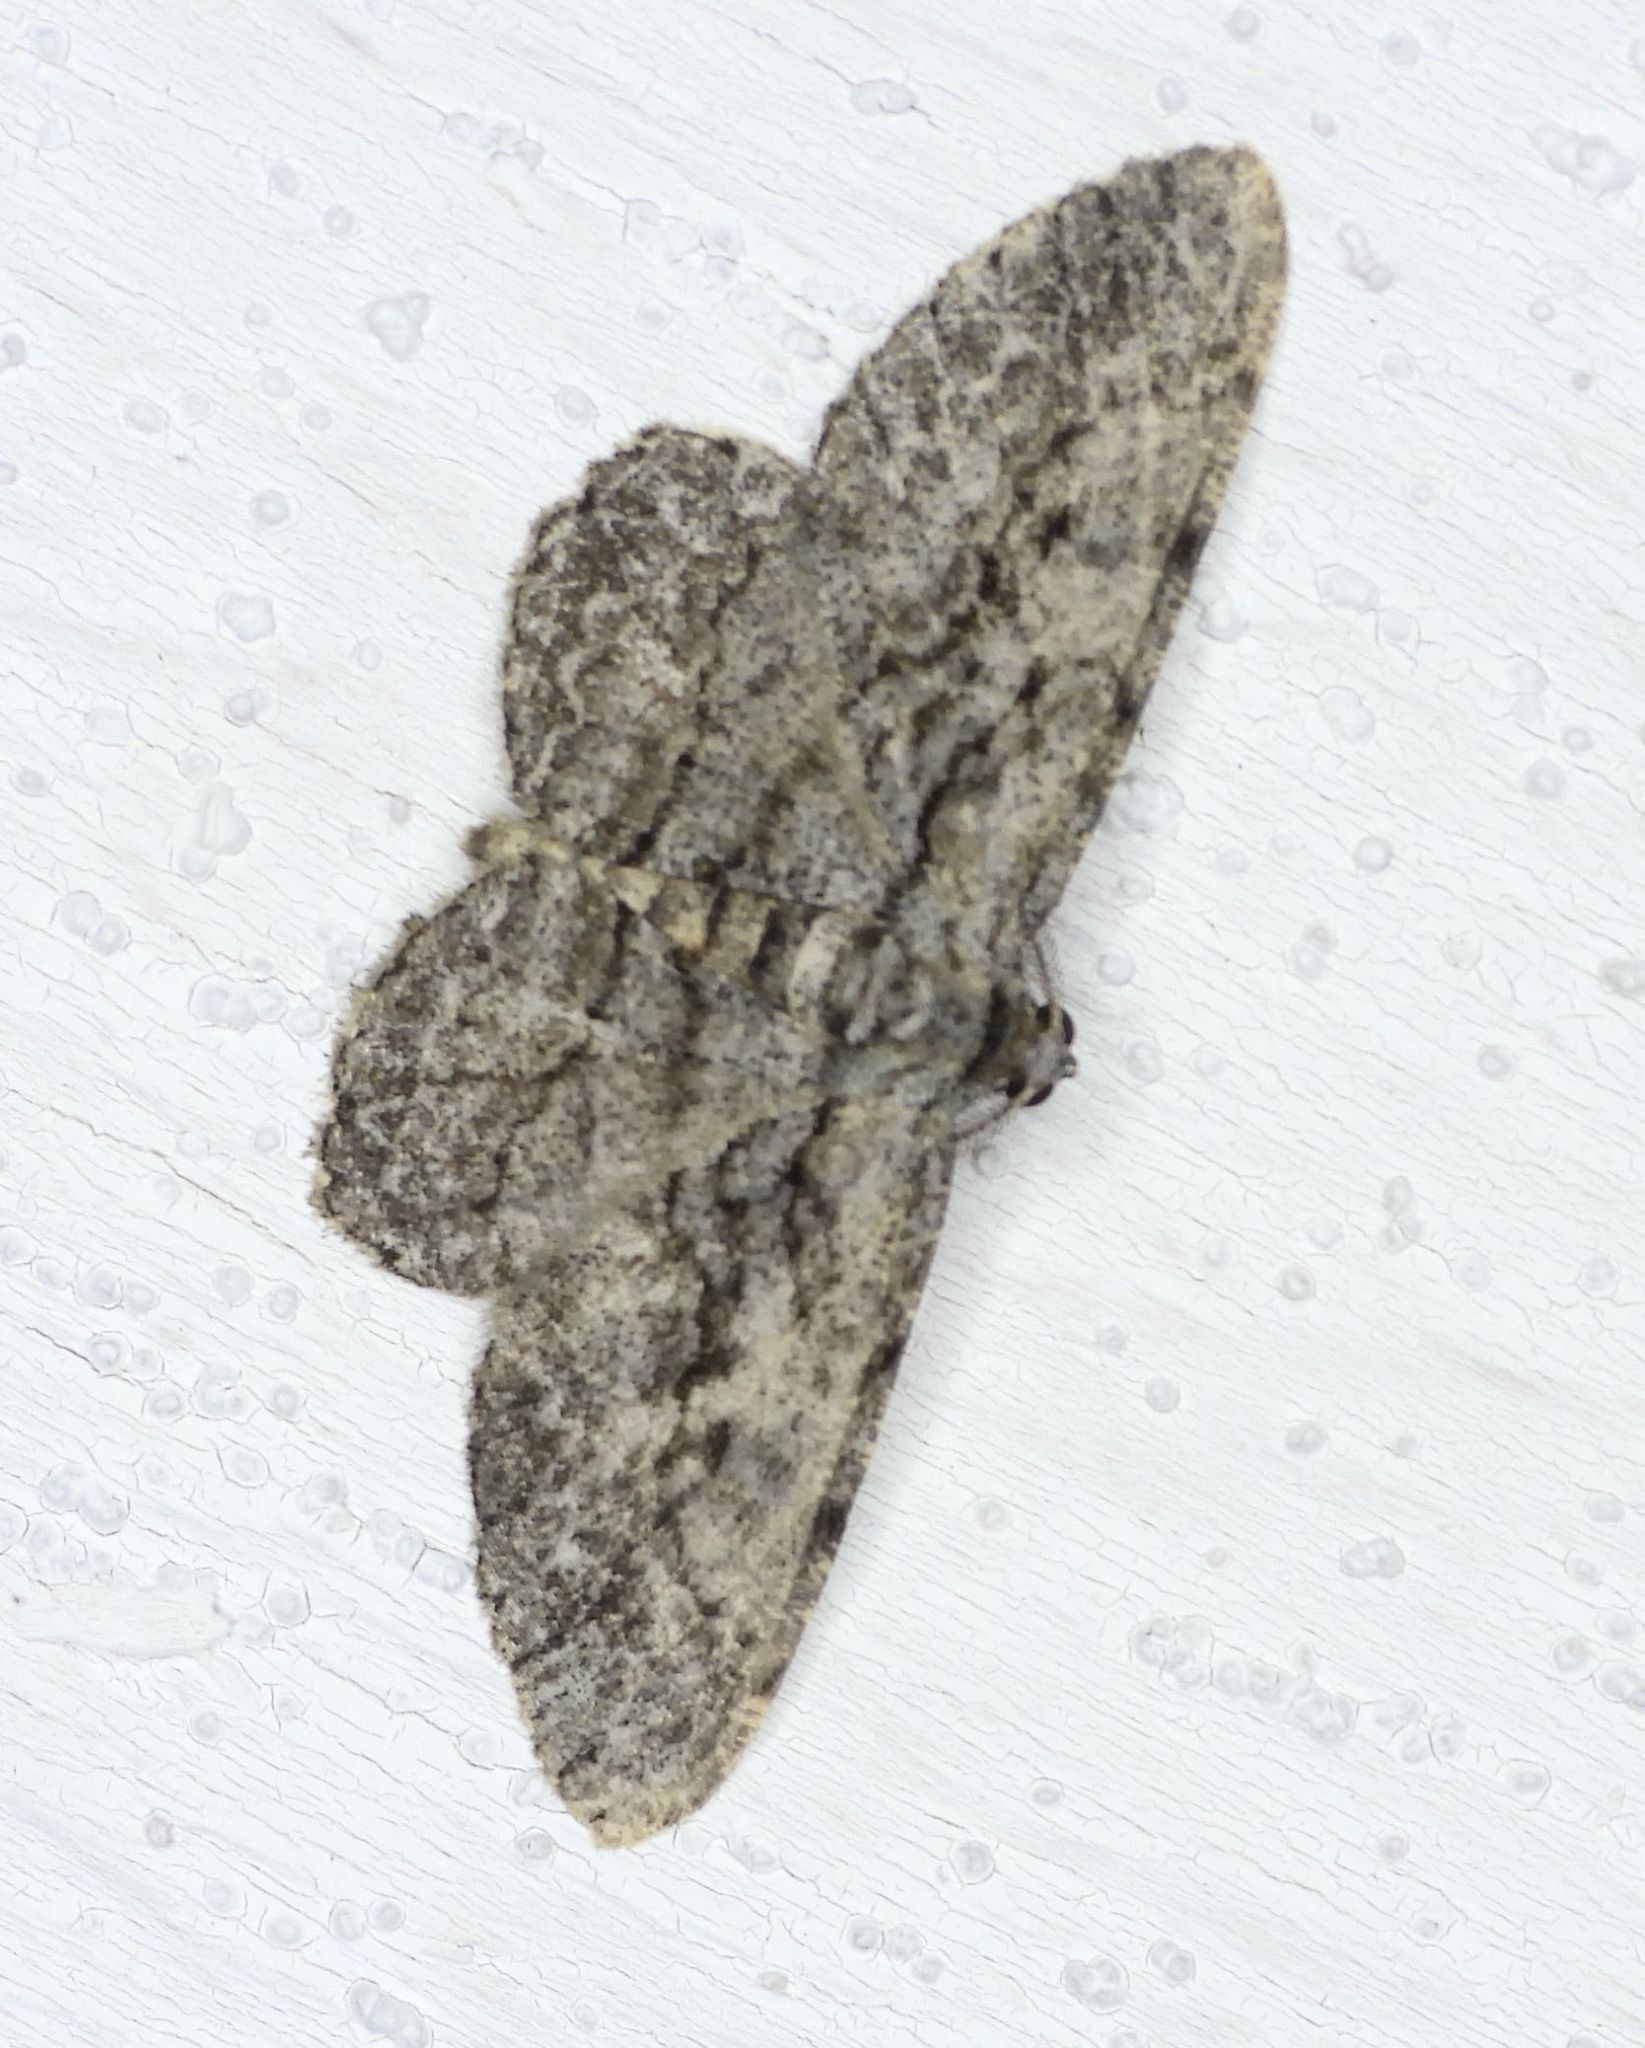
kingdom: Animalia
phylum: Arthropoda
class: Insecta
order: Lepidoptera
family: Geometridae
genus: Anavitrinella
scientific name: Anavitrinella pampinaria
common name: Common gray
